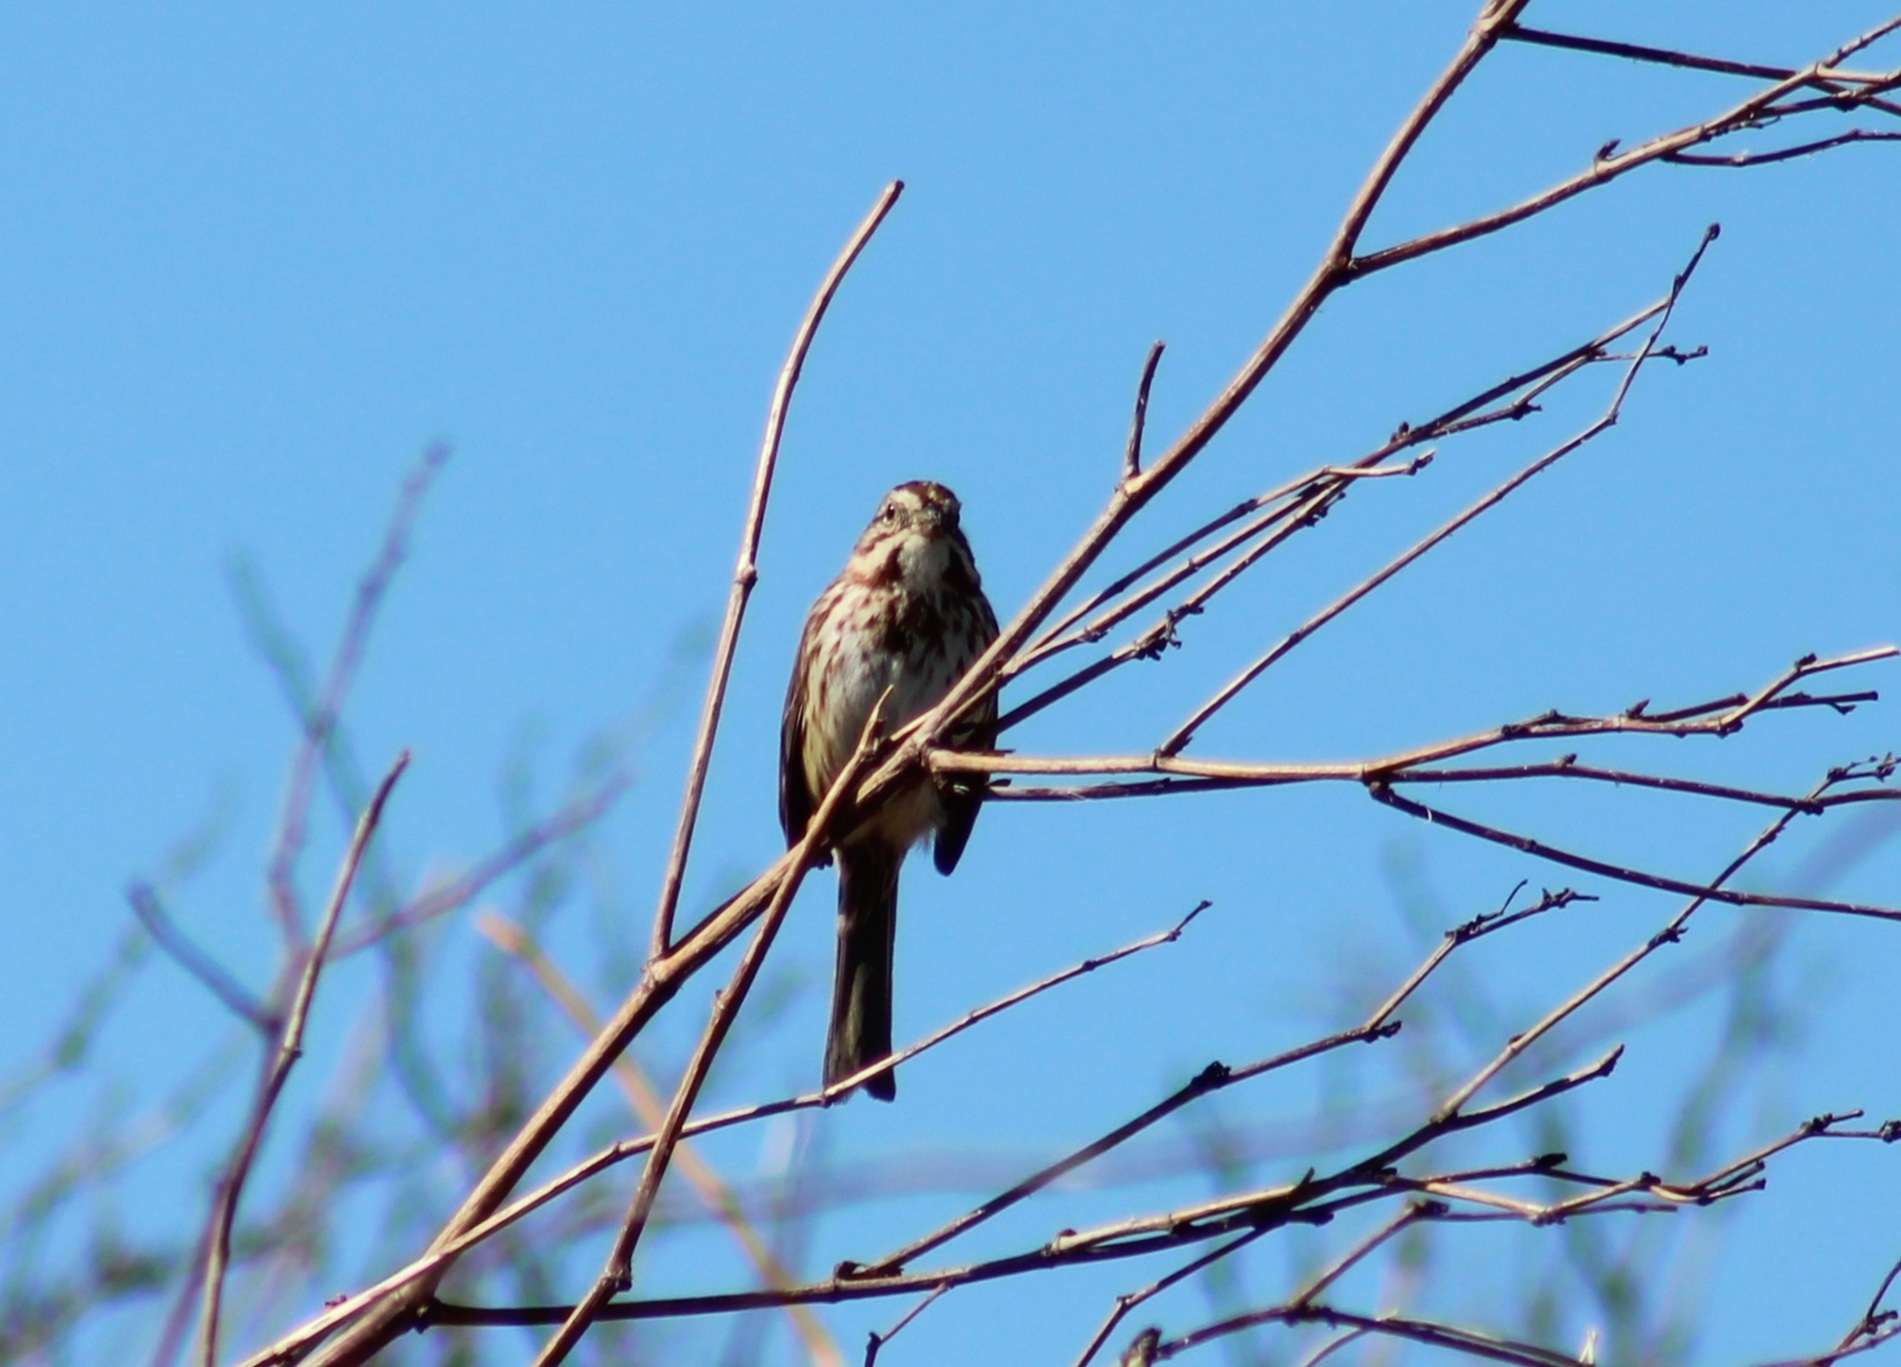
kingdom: Animalia
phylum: Chordata
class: Aves
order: Passeriformes
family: Passerellidae
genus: Melospiza
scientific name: Melospiza melodia
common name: Song sparrow
